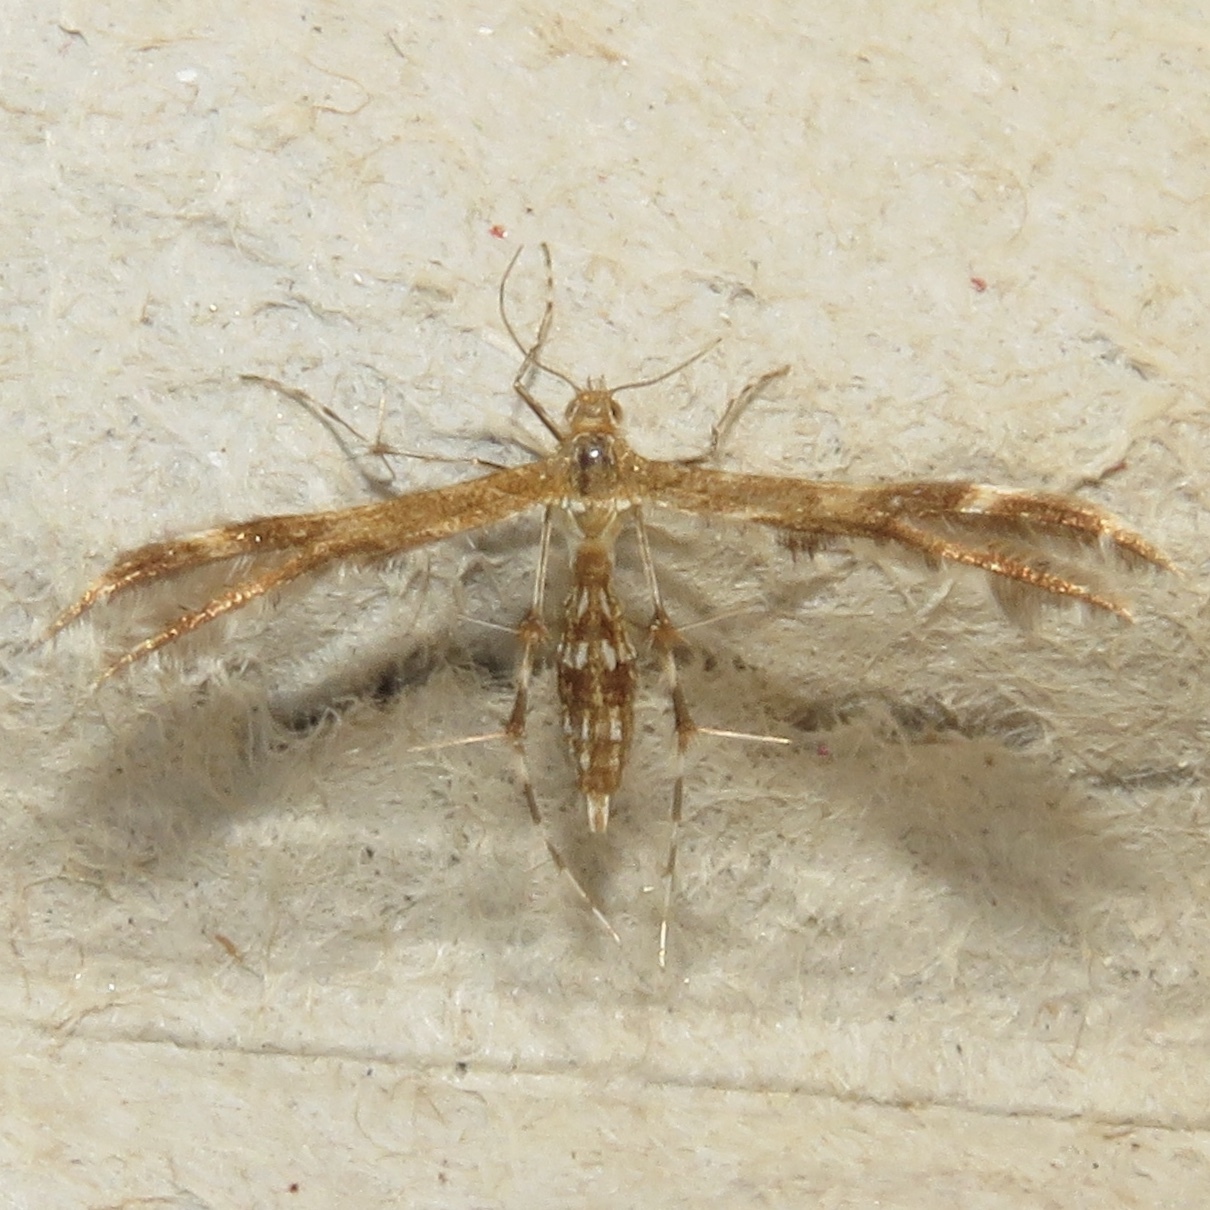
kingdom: Animalia
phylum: Arthropoda
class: Insecta
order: Lepidoptera
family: Pterophoridae
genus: Dejongia
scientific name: Dejongia lobidactylus
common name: Lobed plume moth
